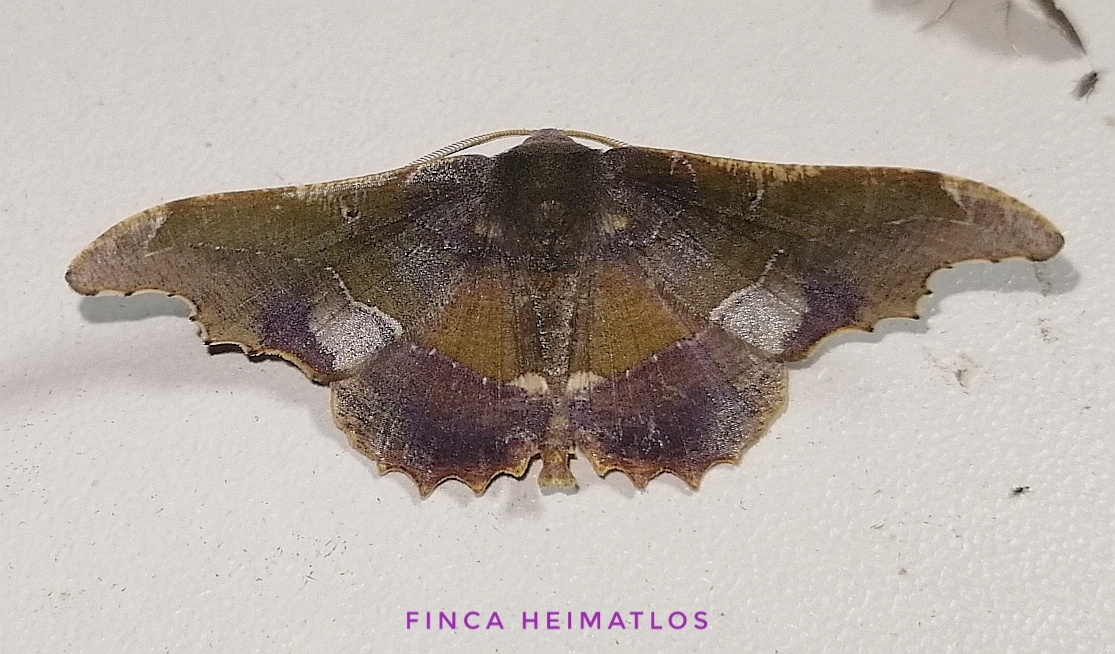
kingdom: Animalia
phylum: Arthropoda
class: Insecta
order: Lepidoptera
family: Geometridae
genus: Patalene
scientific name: Patalene aenetusaria
